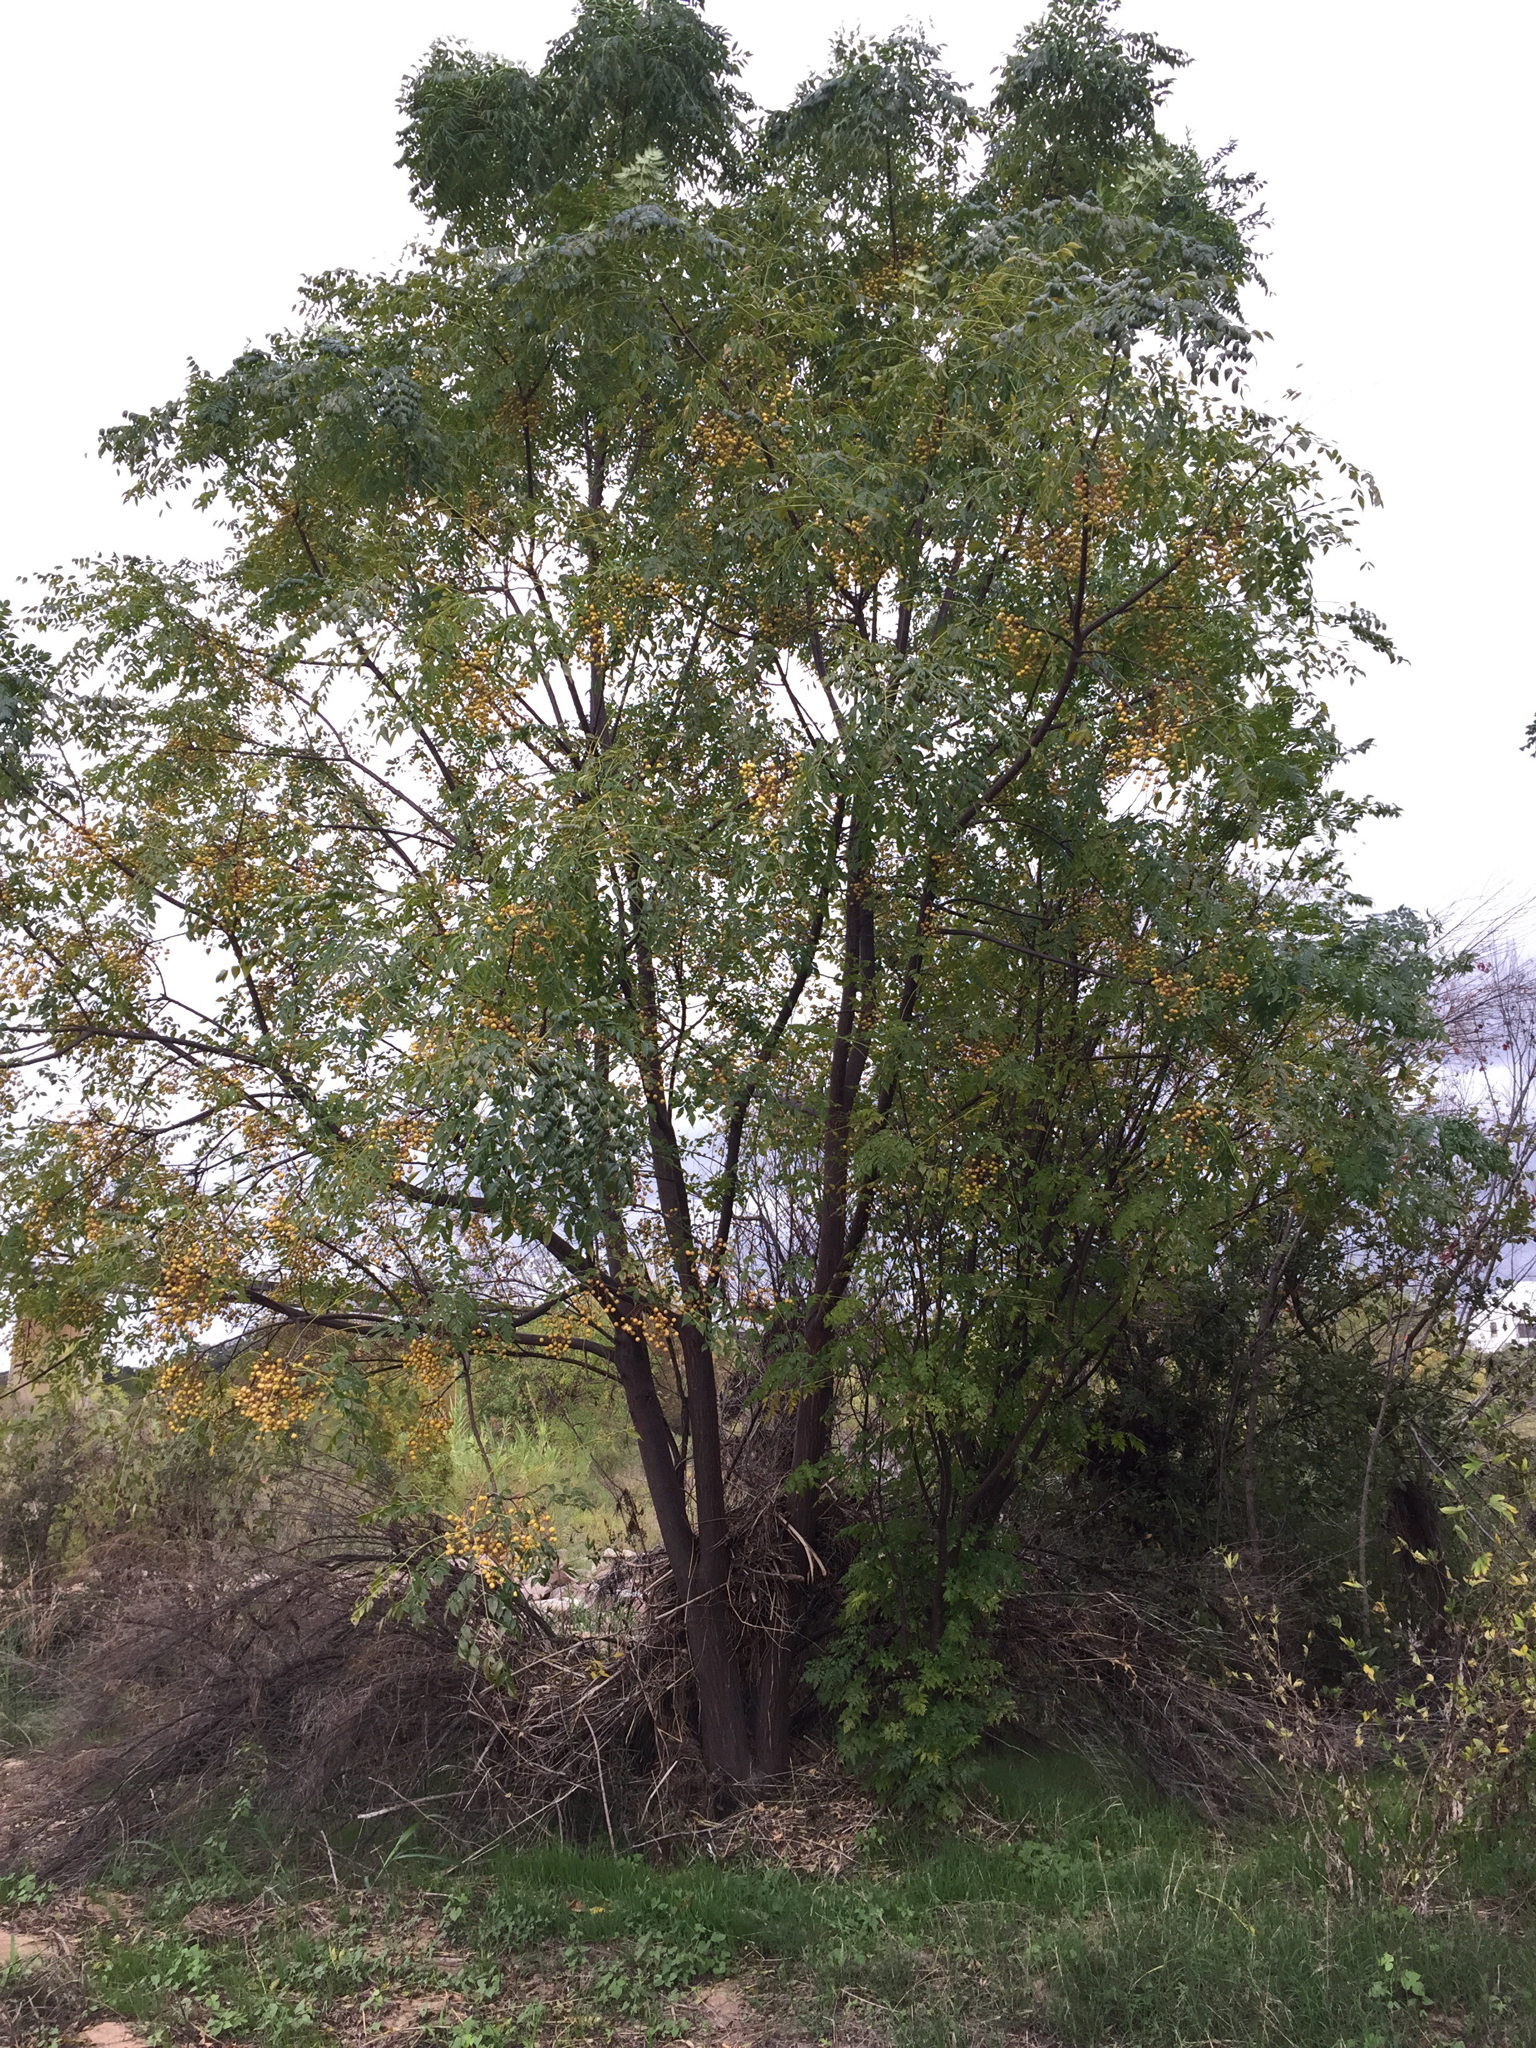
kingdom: Plantae
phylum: Tracheophyta
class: Magnoliopsida
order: Sapindales
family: Meliaceae
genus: Melia
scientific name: Melia azedarach
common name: Chinaberrytree
